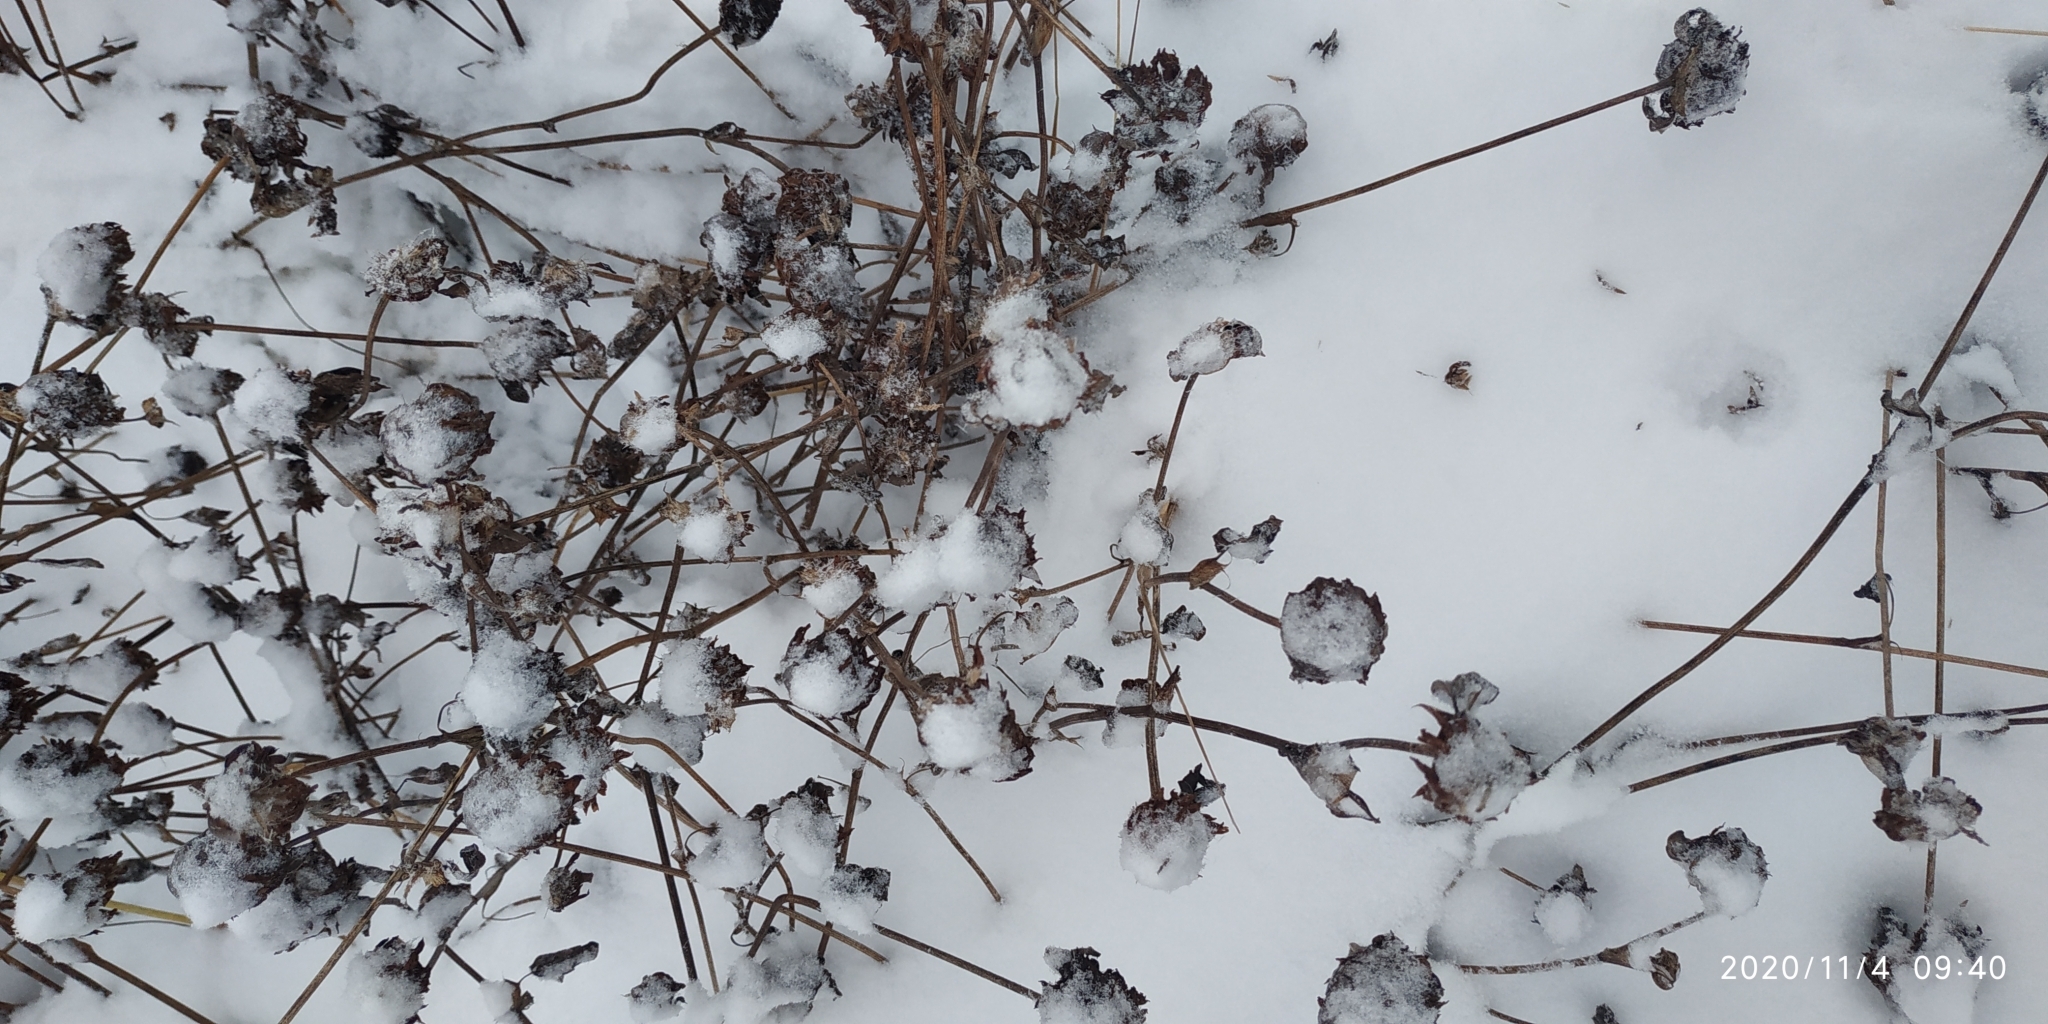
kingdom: Plantae
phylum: Tracheophyta
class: Magnoliopsida
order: Fabales
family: Fabaceae
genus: Trifolium
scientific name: Trifolium pratense
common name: Red clover
